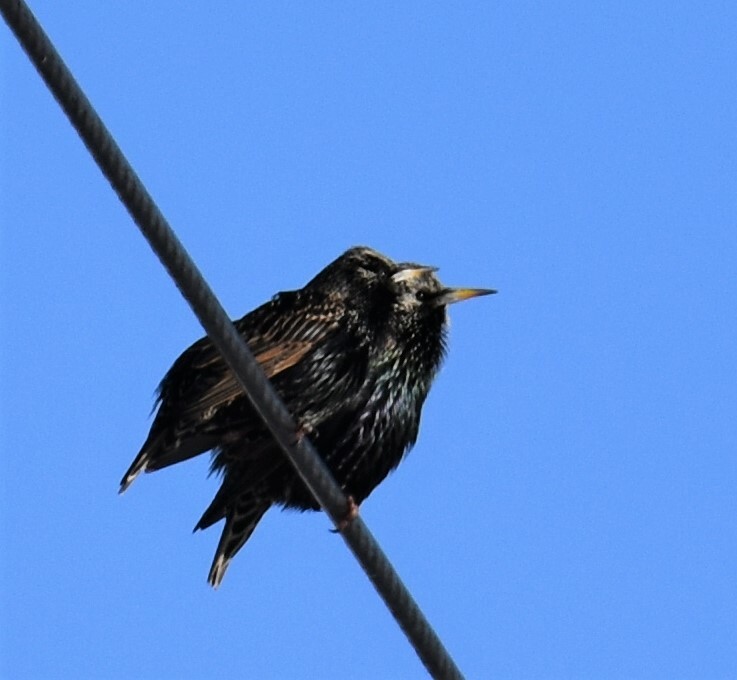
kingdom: Animalia
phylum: Chordata
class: Aves
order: Passeriformes
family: Sturnidae
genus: Sturnus
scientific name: Sturnus vulgaris
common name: Common starling
